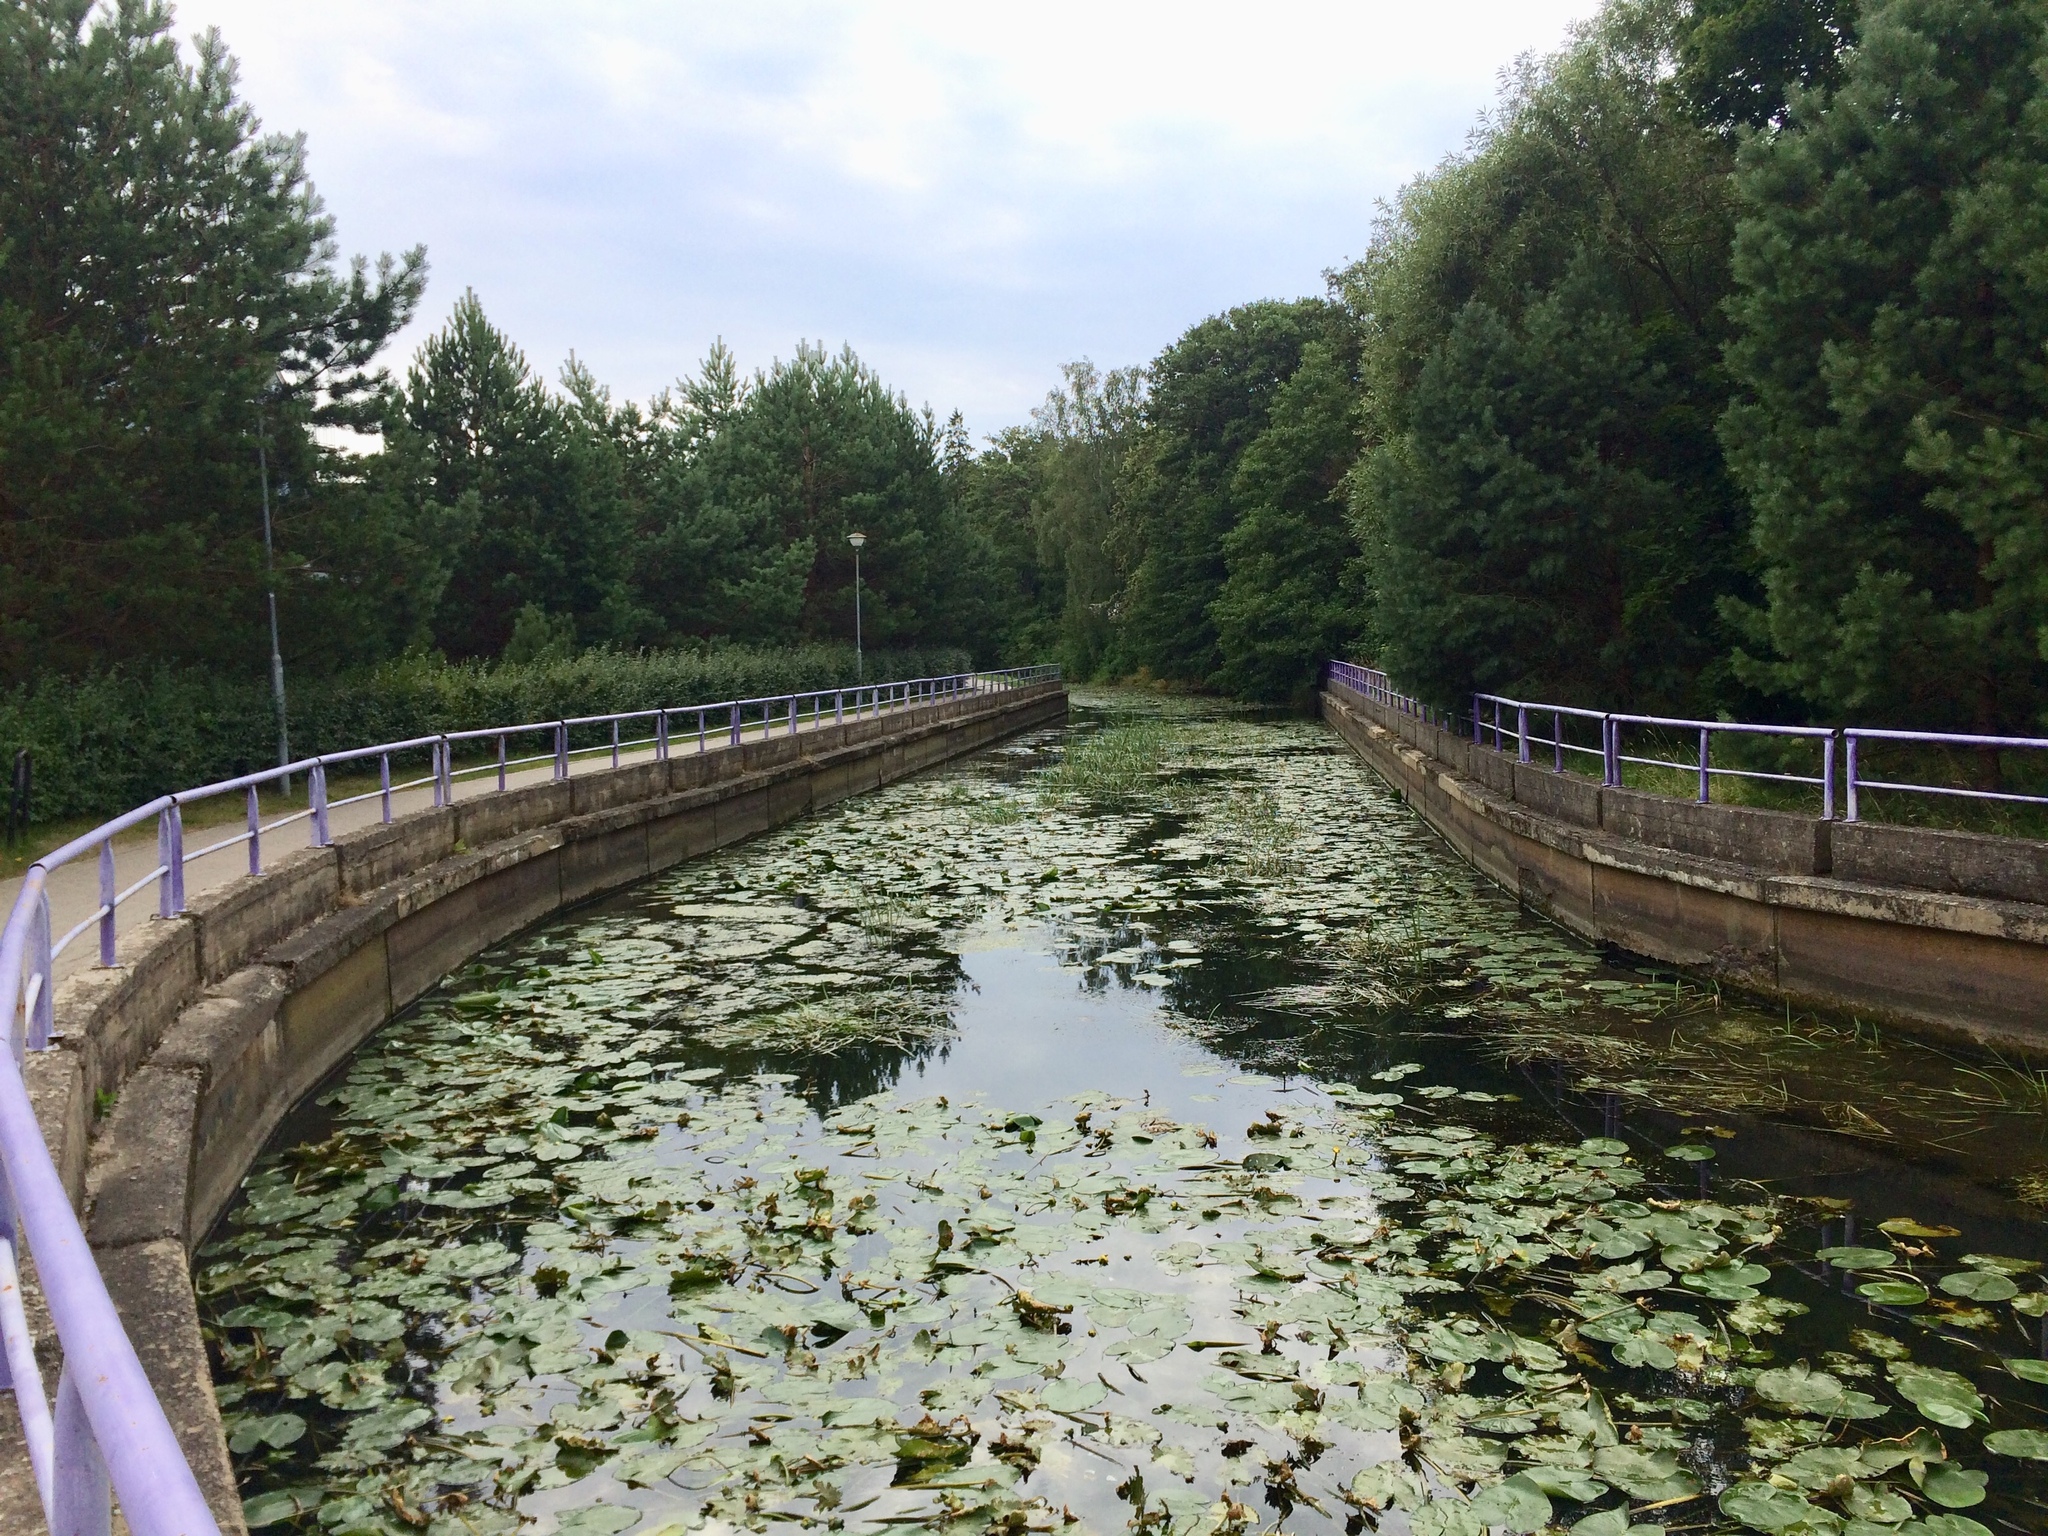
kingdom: Plantae
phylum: Tracheophyta
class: Magnoliopsida
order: Nymphaeales
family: Nymphaeaceae
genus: Nuphar
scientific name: Nuphar lutea
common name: Yellow water-lily
